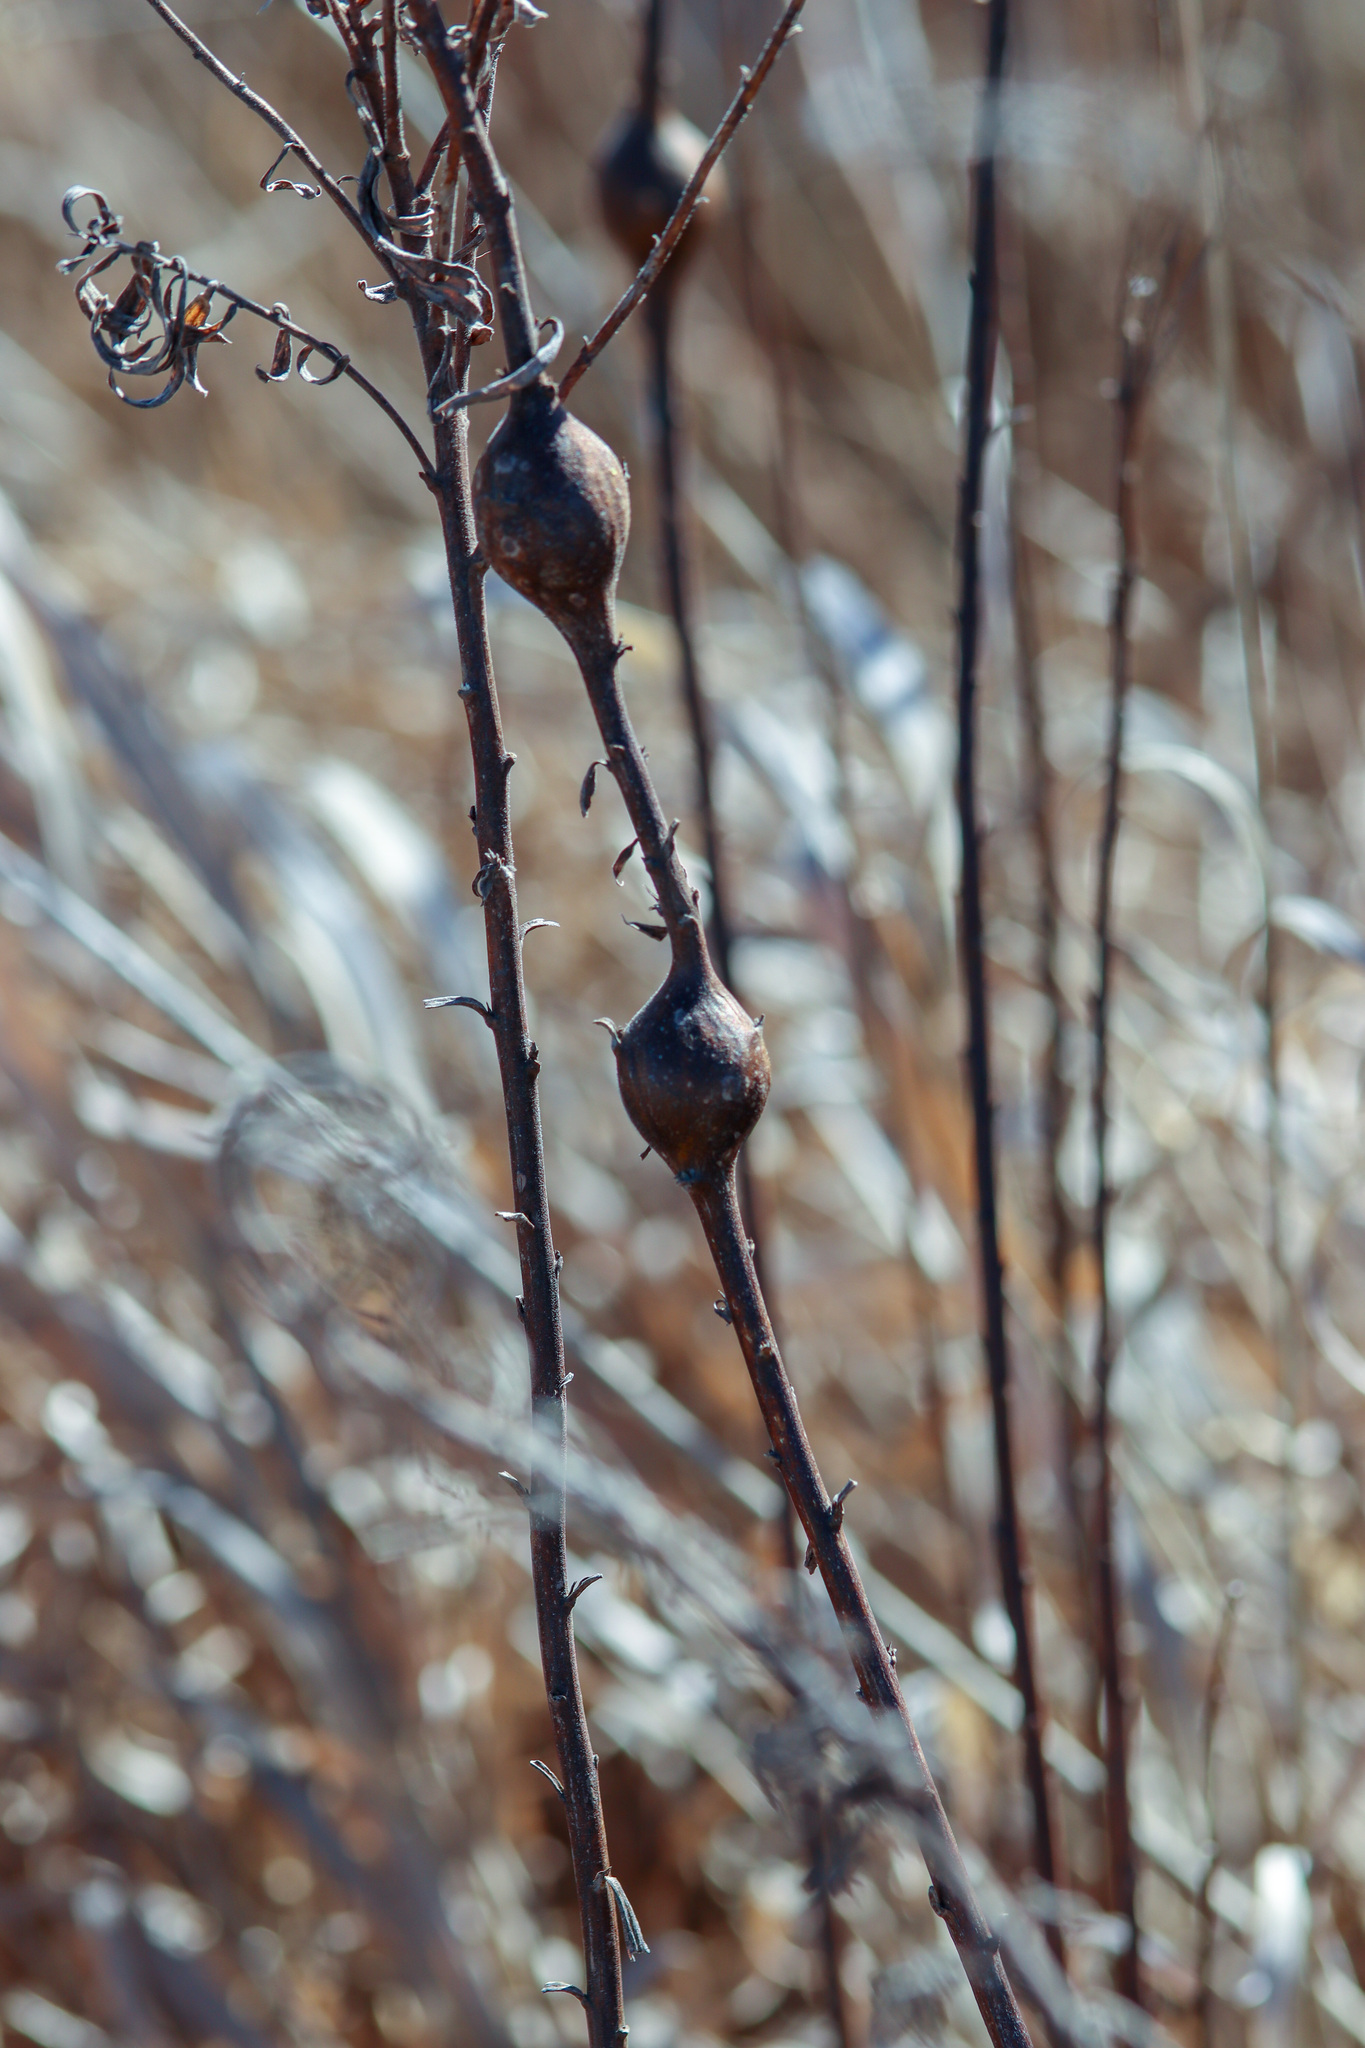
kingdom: Animalia
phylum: Arthropoda
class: Insecta
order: Diptera
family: Tephritidae
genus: Eurosta
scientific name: Eurosta solidaginis
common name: Goldenrod gall fly
